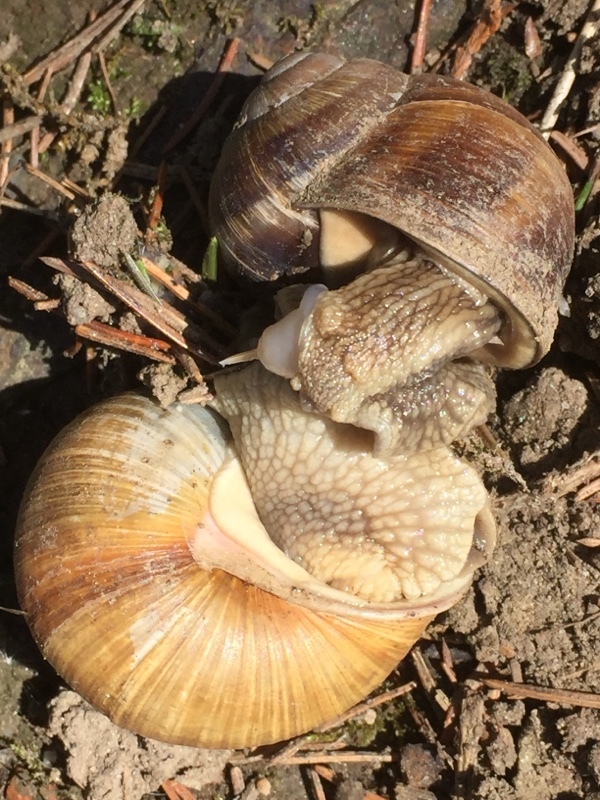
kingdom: Animalia
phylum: Mollusca
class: Gastropoda
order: Stylommatophora
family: Helicidae
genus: Helix
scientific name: Helix pomatia
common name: Roman snail
